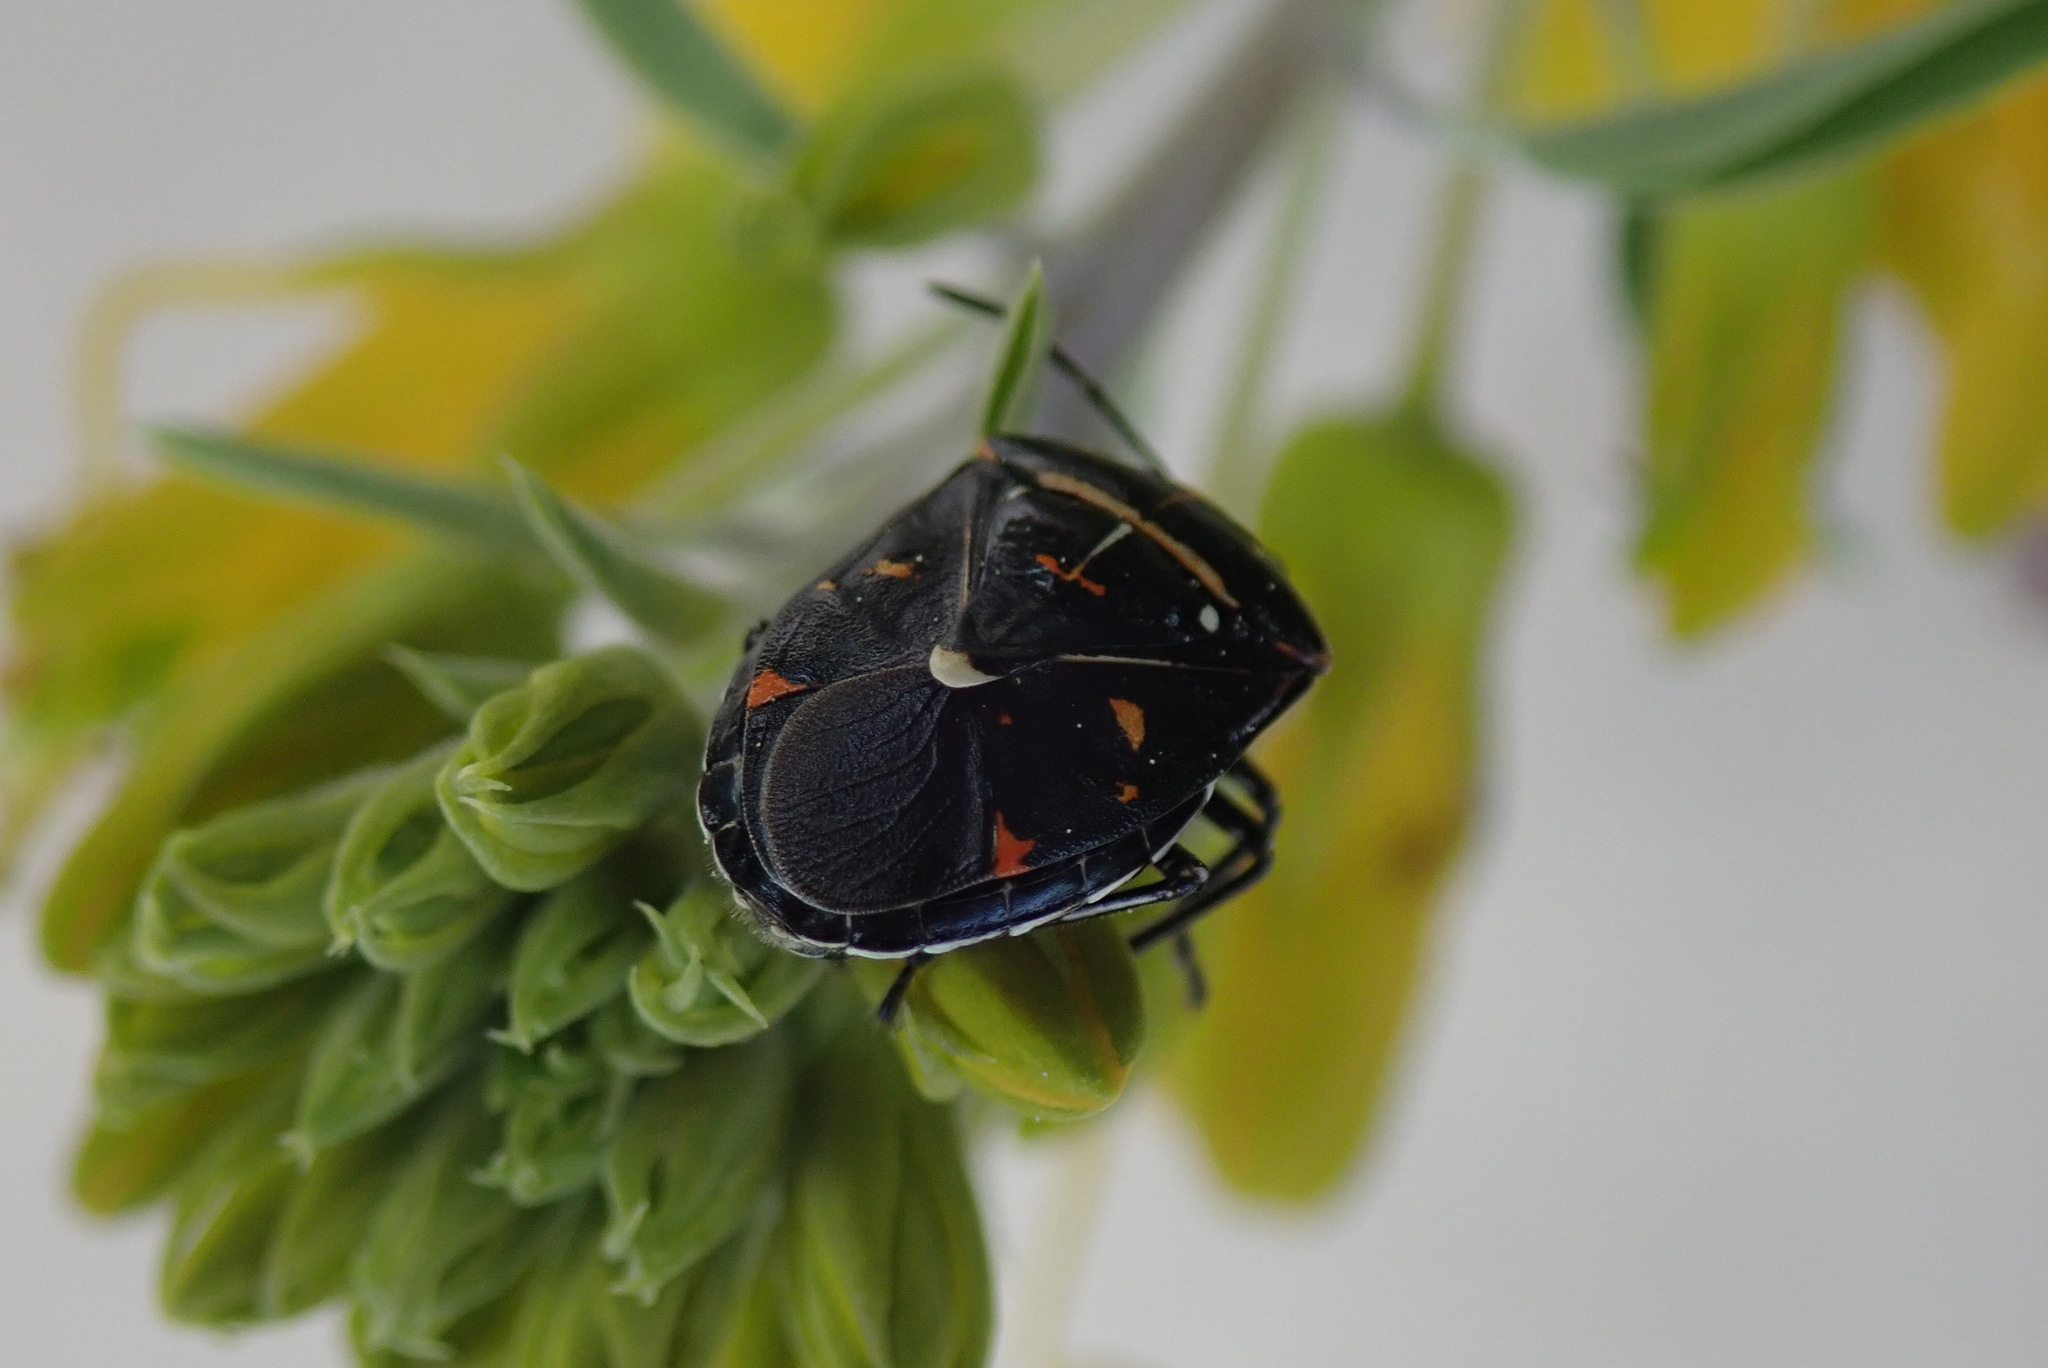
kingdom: Animalia
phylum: Arthropoda
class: Insecta
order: Hemiptera
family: Pentatomidae
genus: Murgantia
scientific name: Murgantia histrionica
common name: Harlequin bug
